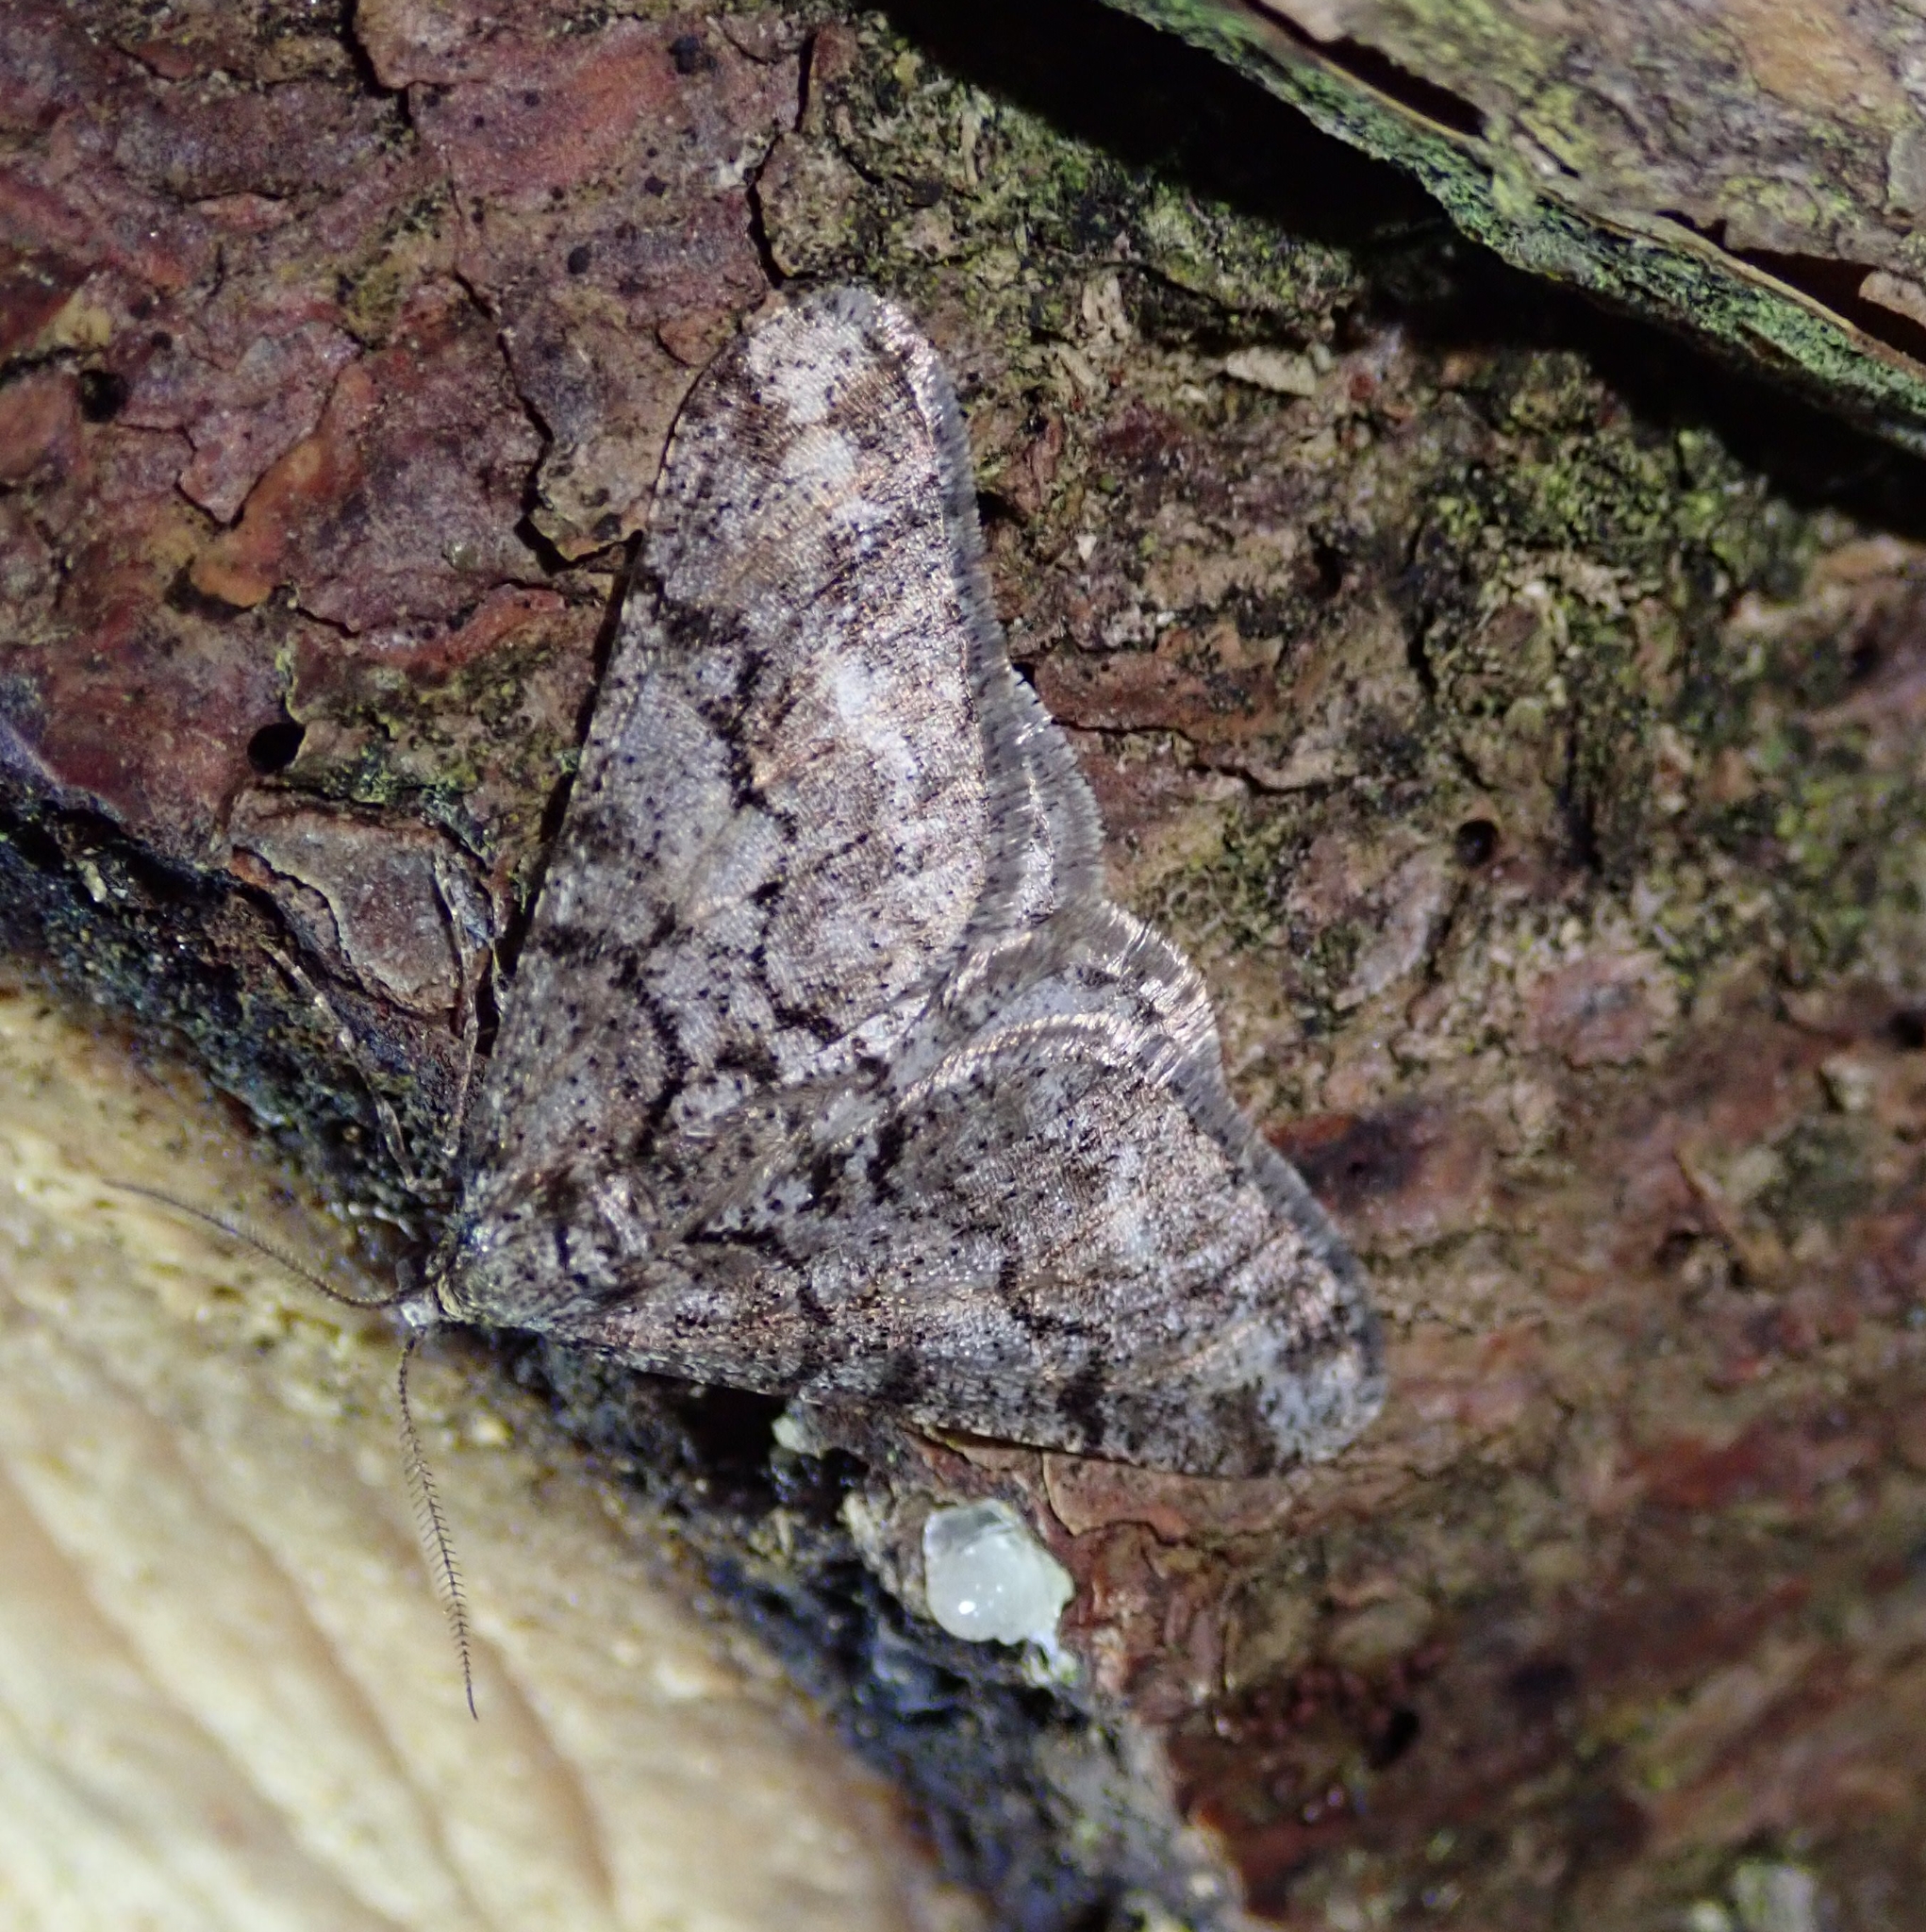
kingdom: Animalia
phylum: Arthropoda
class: Insecta
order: Lepidoptera
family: Geometridae
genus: Agriopis
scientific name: Agriopis leucophaearia
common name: Spring usher
